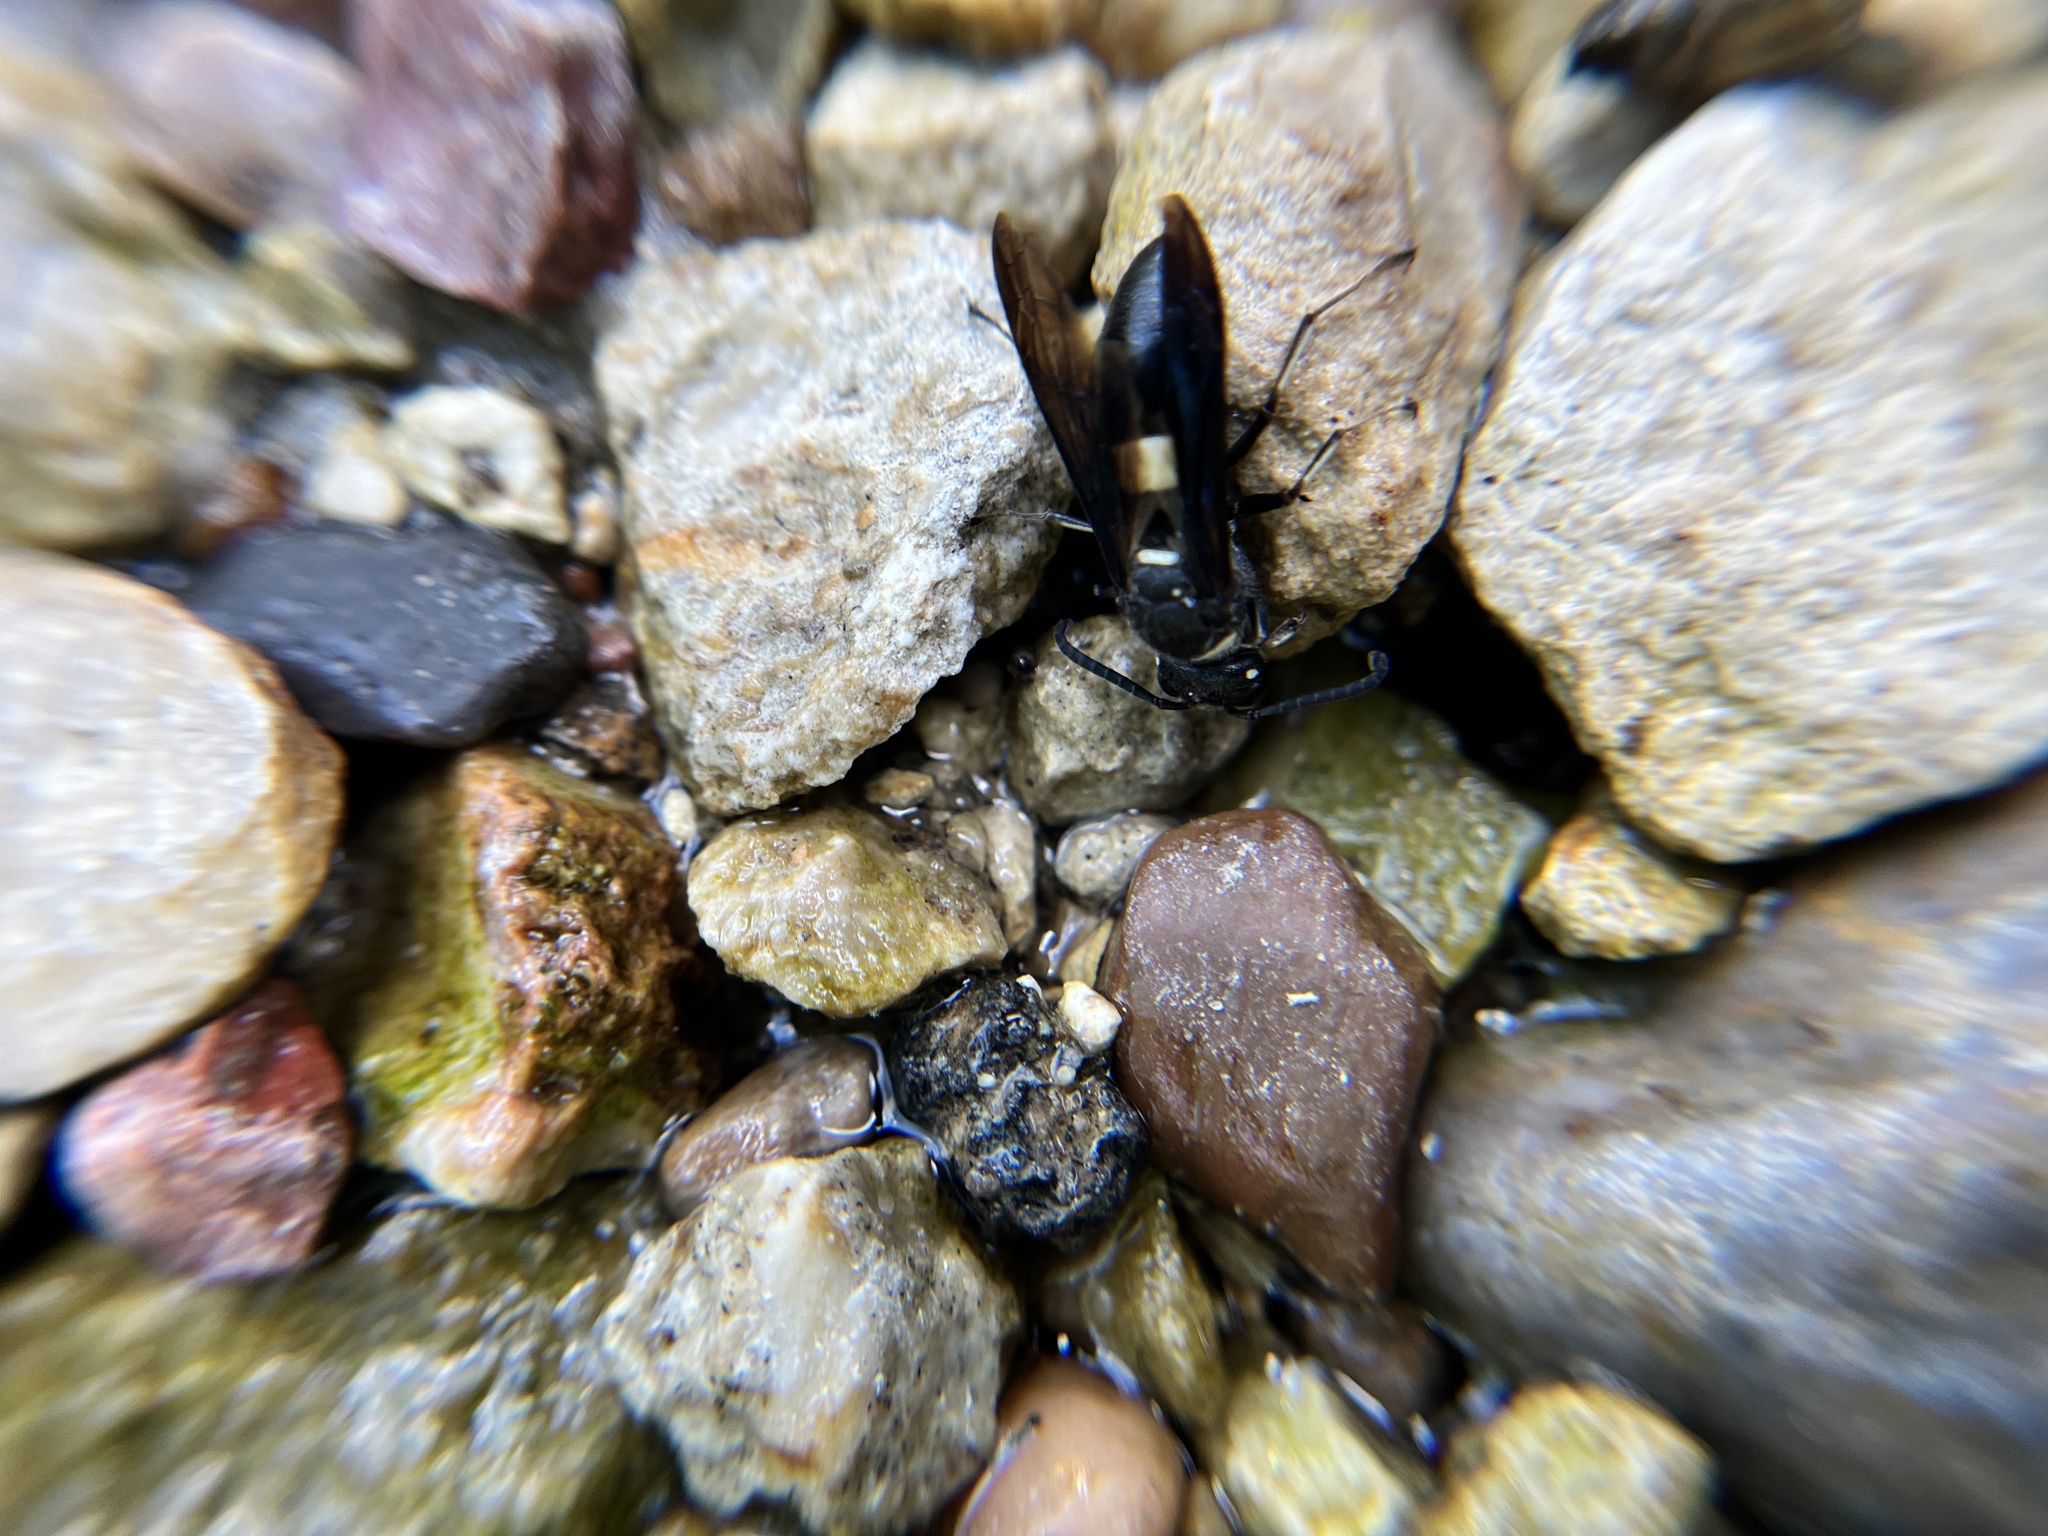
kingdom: Animalia
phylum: Arthropoda
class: Insecta
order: Hymenoptera
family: Eumenidae
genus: Monobia
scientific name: Monobia quadridens
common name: Four-toothed mason wasp
